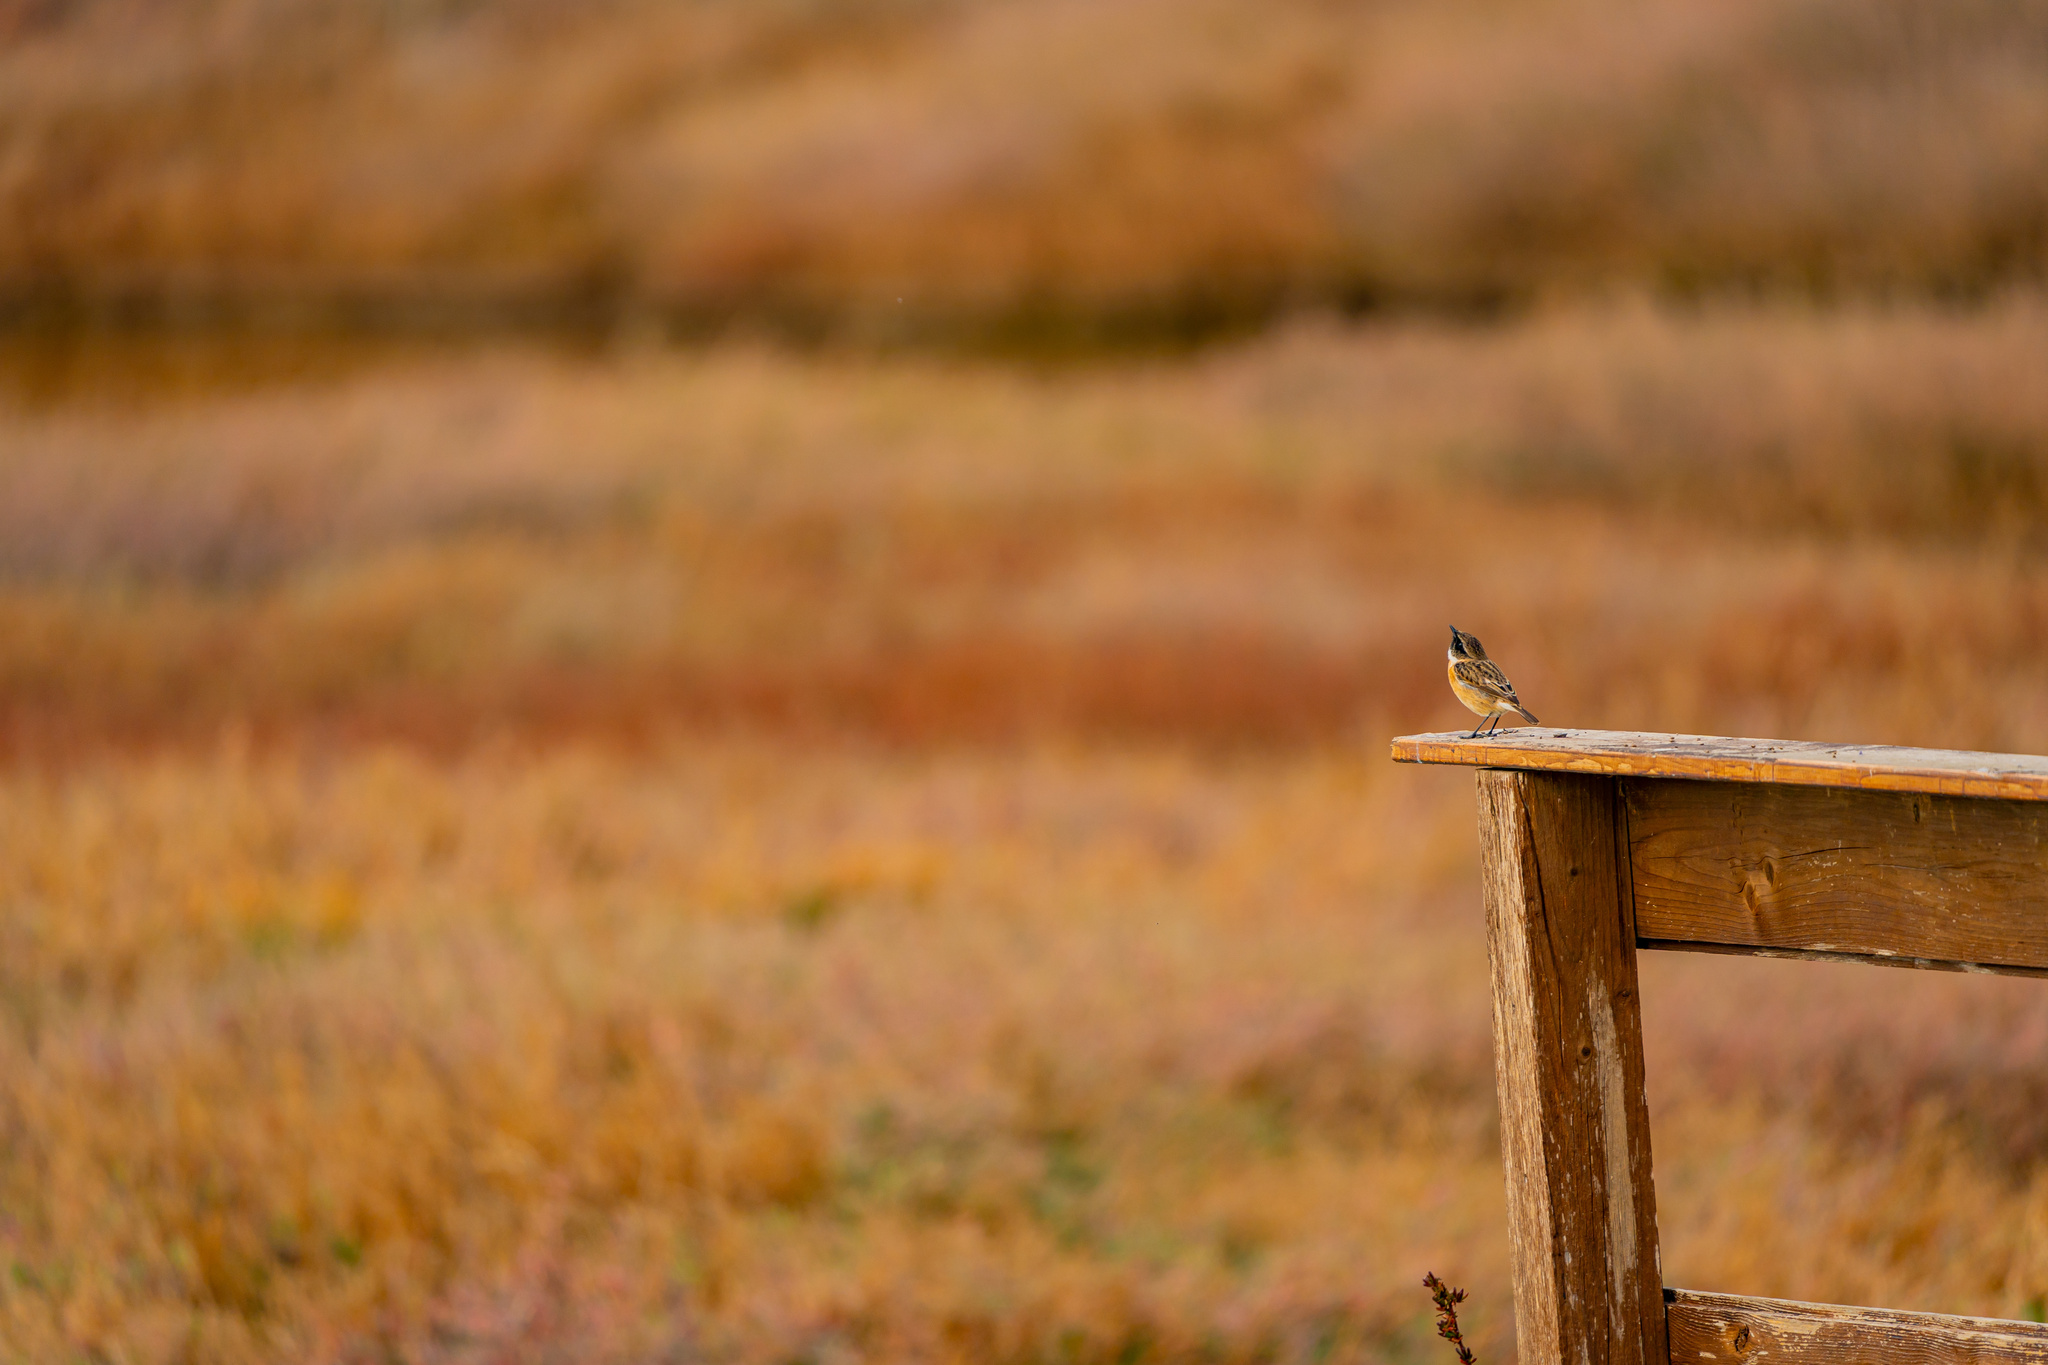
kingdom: Animalia
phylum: Chordata
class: Aves
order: Passeriformes
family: Muscicapidae
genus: Saxicola
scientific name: Saxicola rubicola
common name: European stonechat
